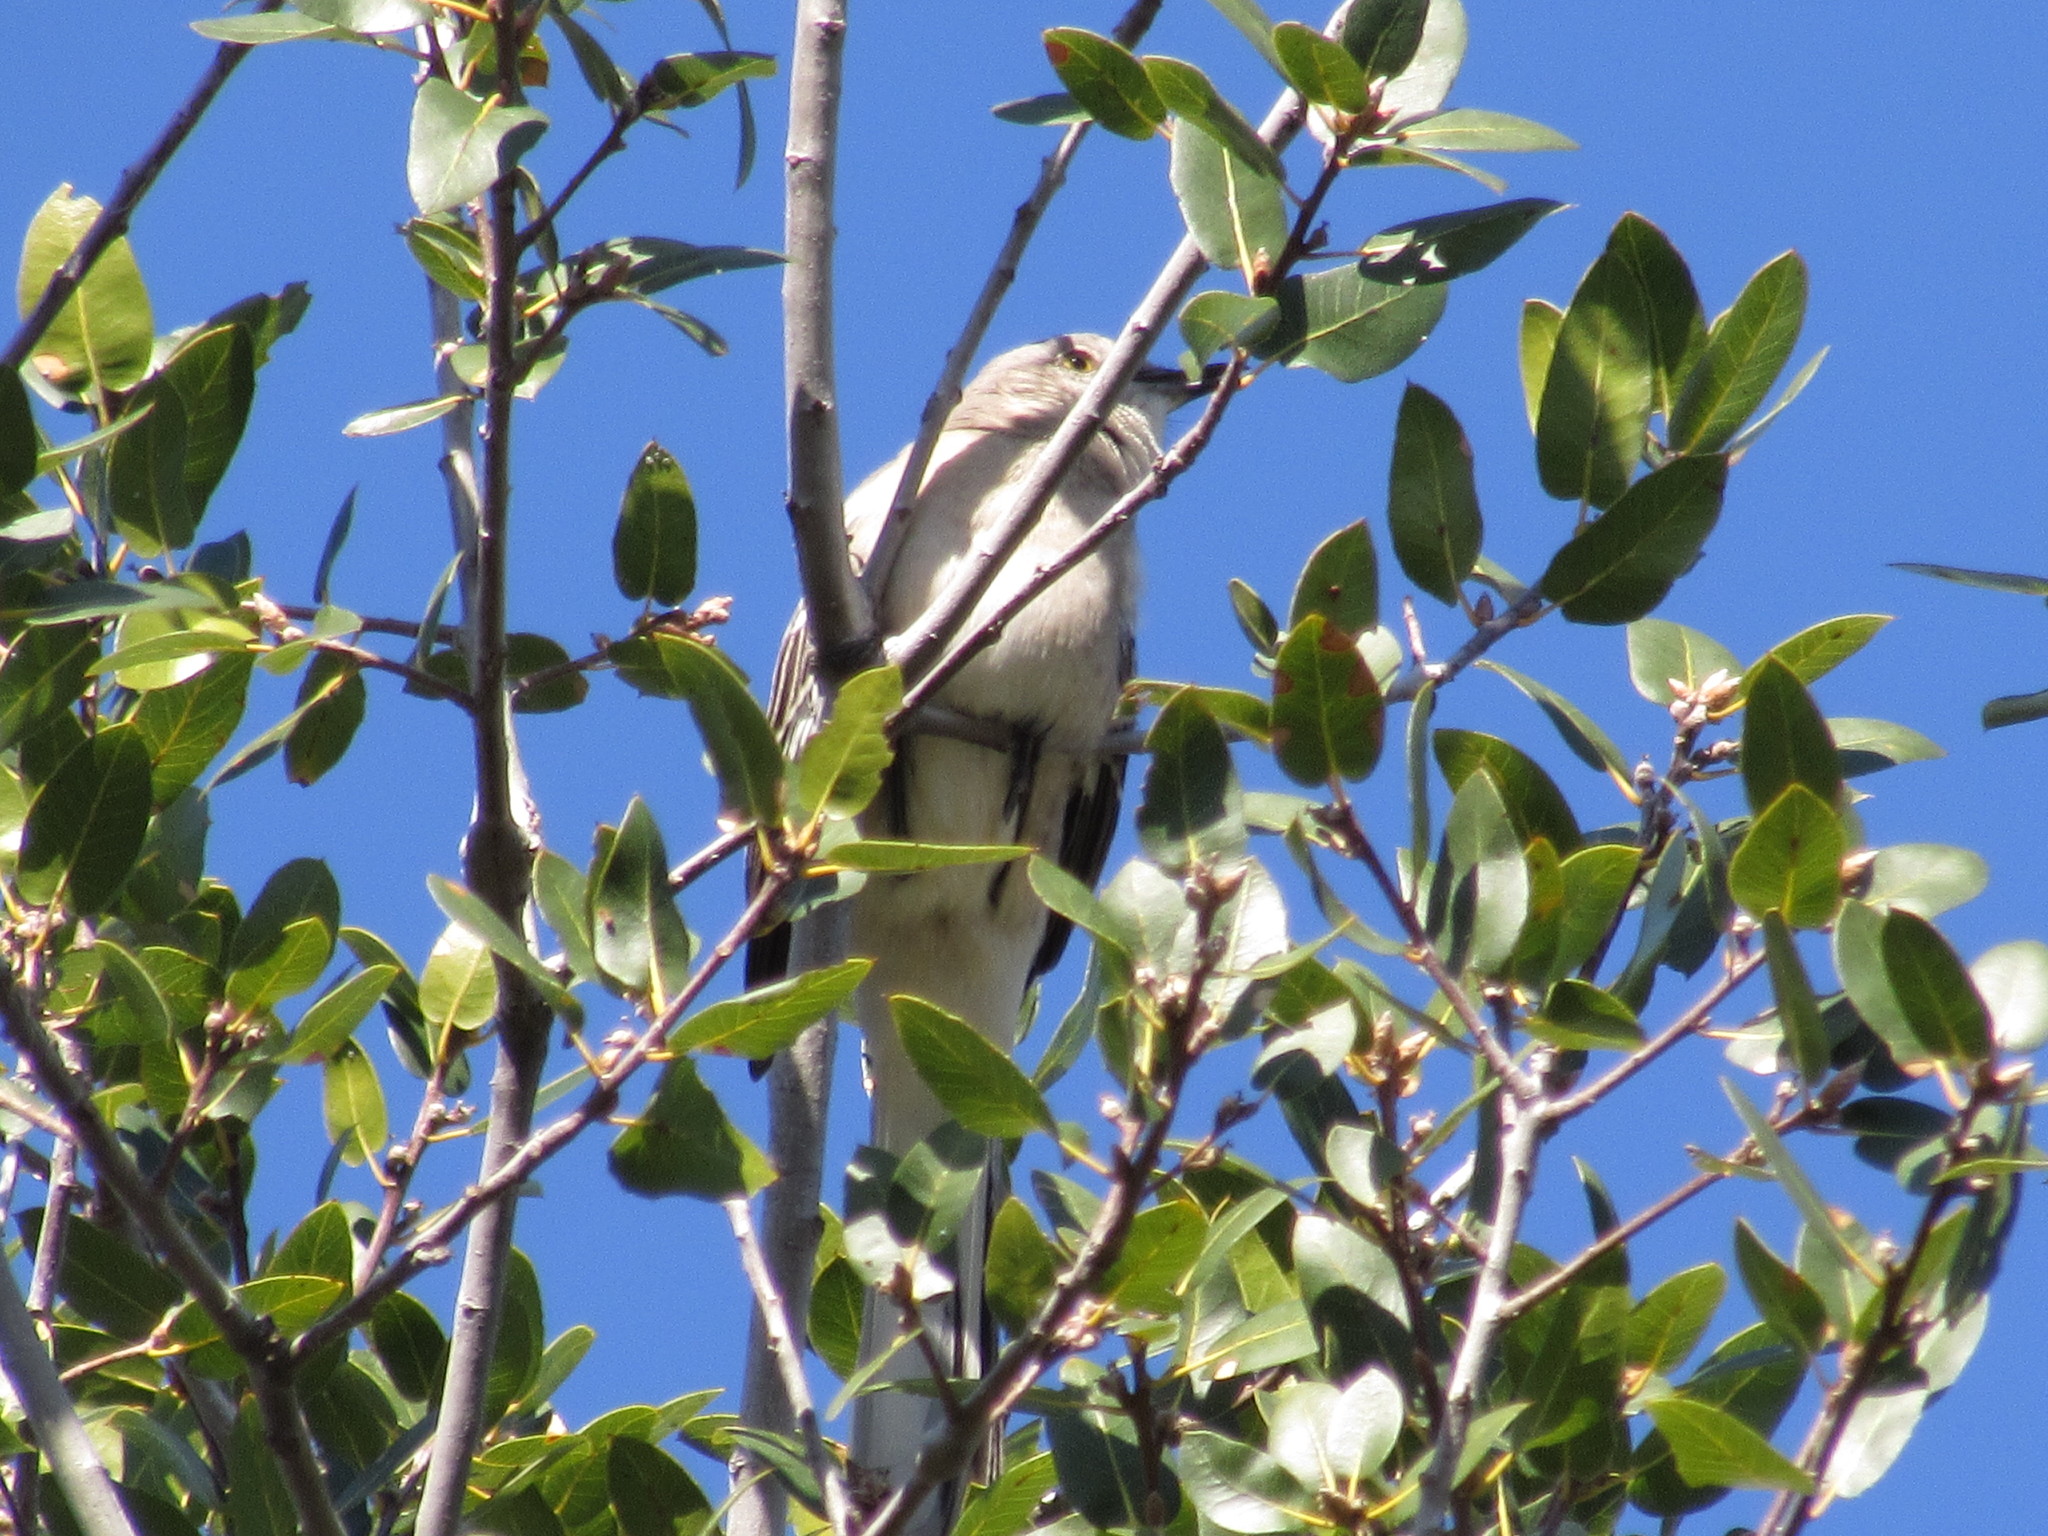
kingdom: Animalia
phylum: Chordata
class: Aves
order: Passeriformes
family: Mimidae
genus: Mimus
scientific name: Mimus polyglottos
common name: Northern mockingbird
